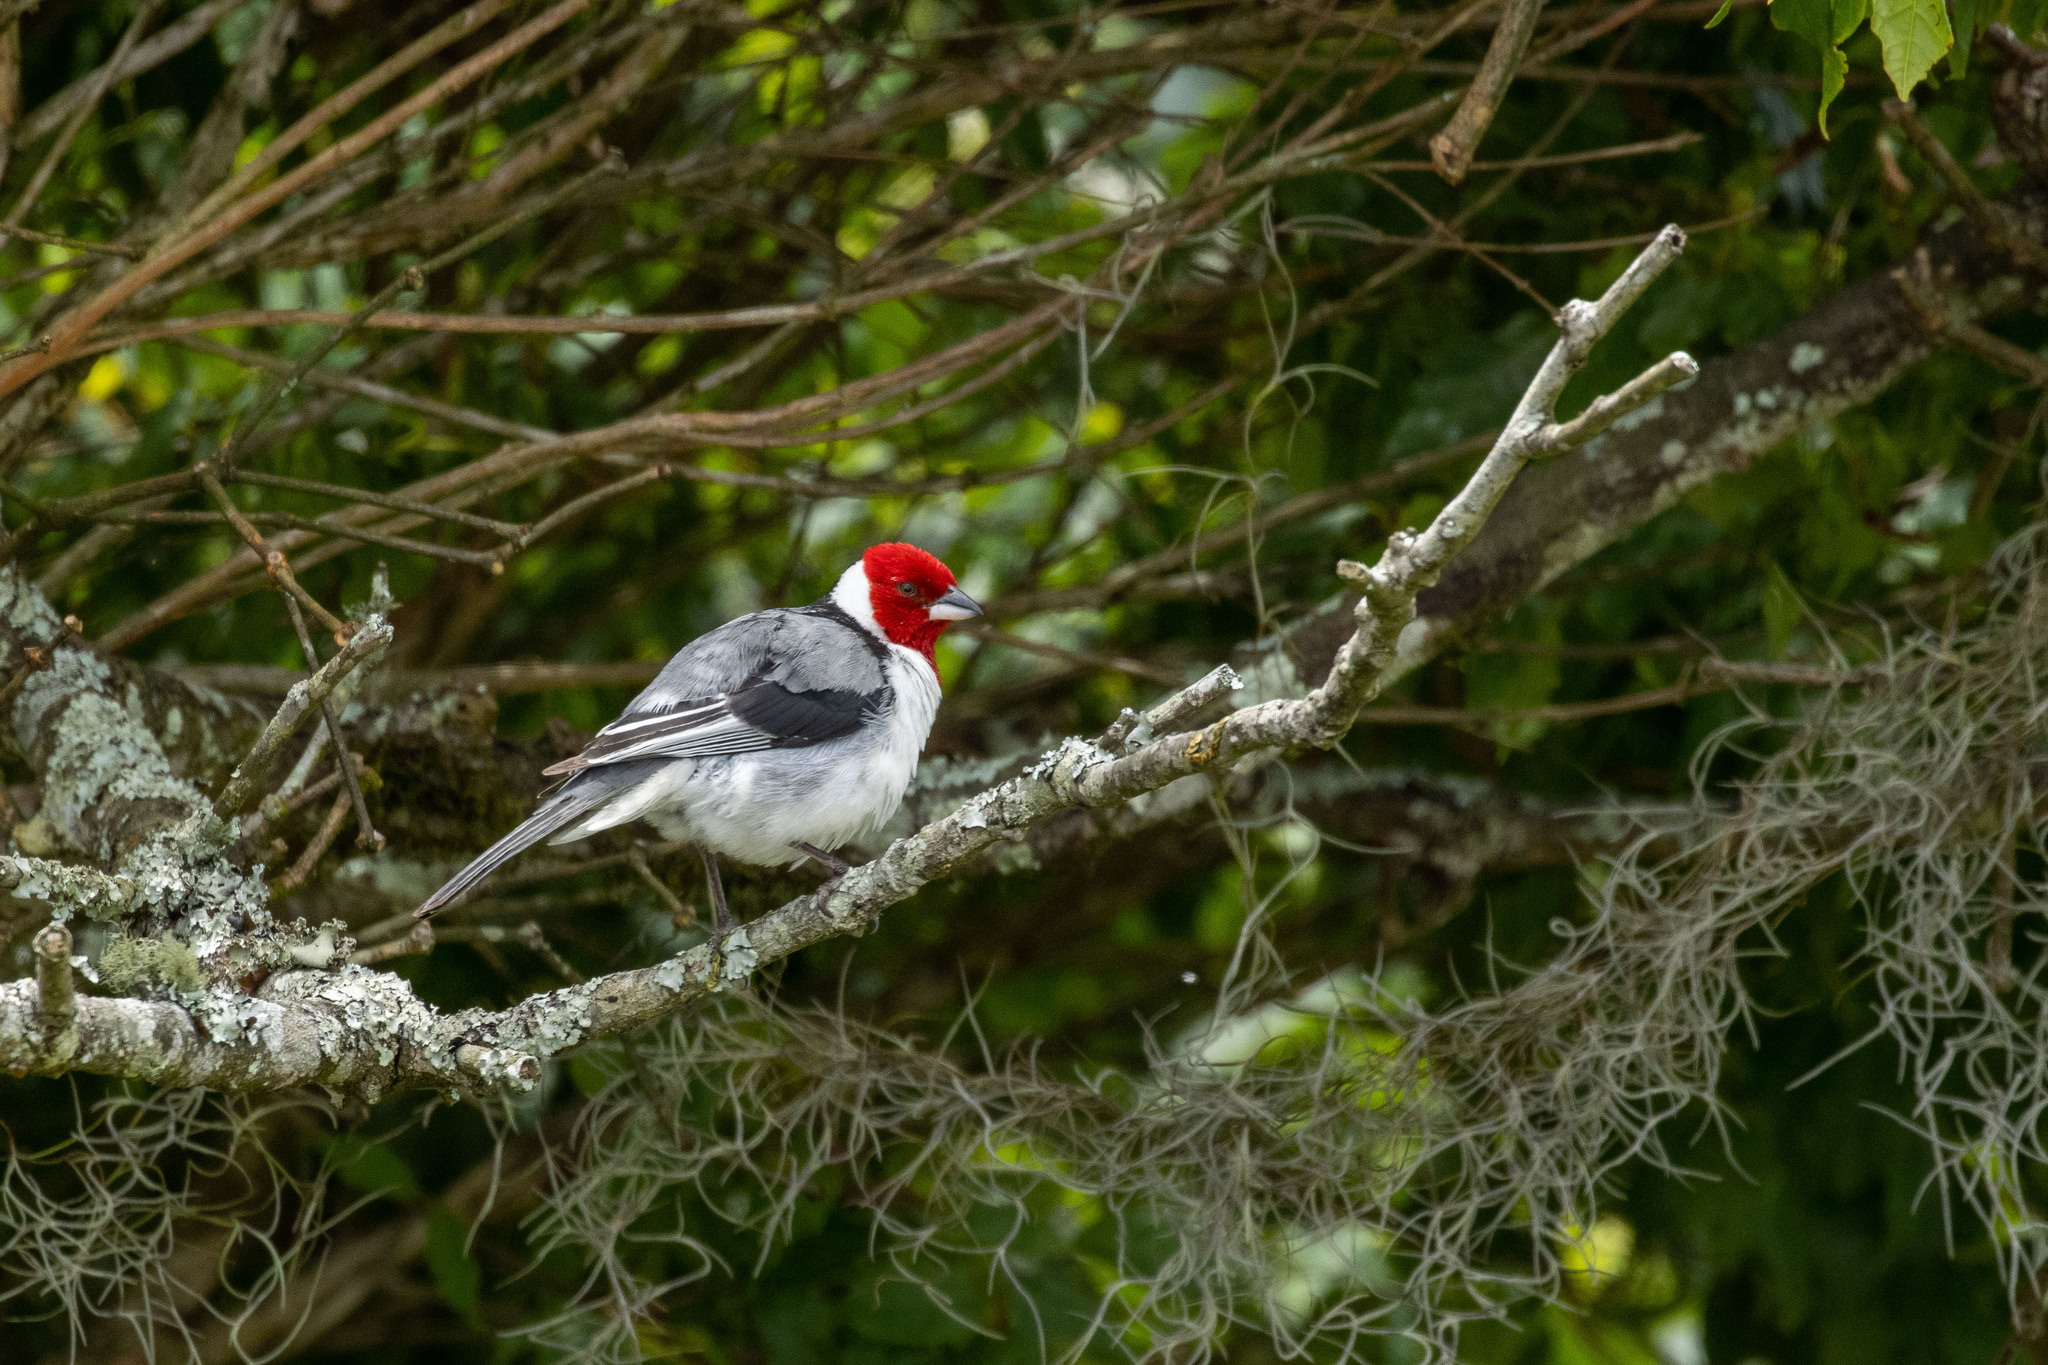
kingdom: Animalia
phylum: Chordata
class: Aves
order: Passeriformes
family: Thraupidae
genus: Paroaria
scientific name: Paroaria dominicana
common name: Red-cowled cardinal
